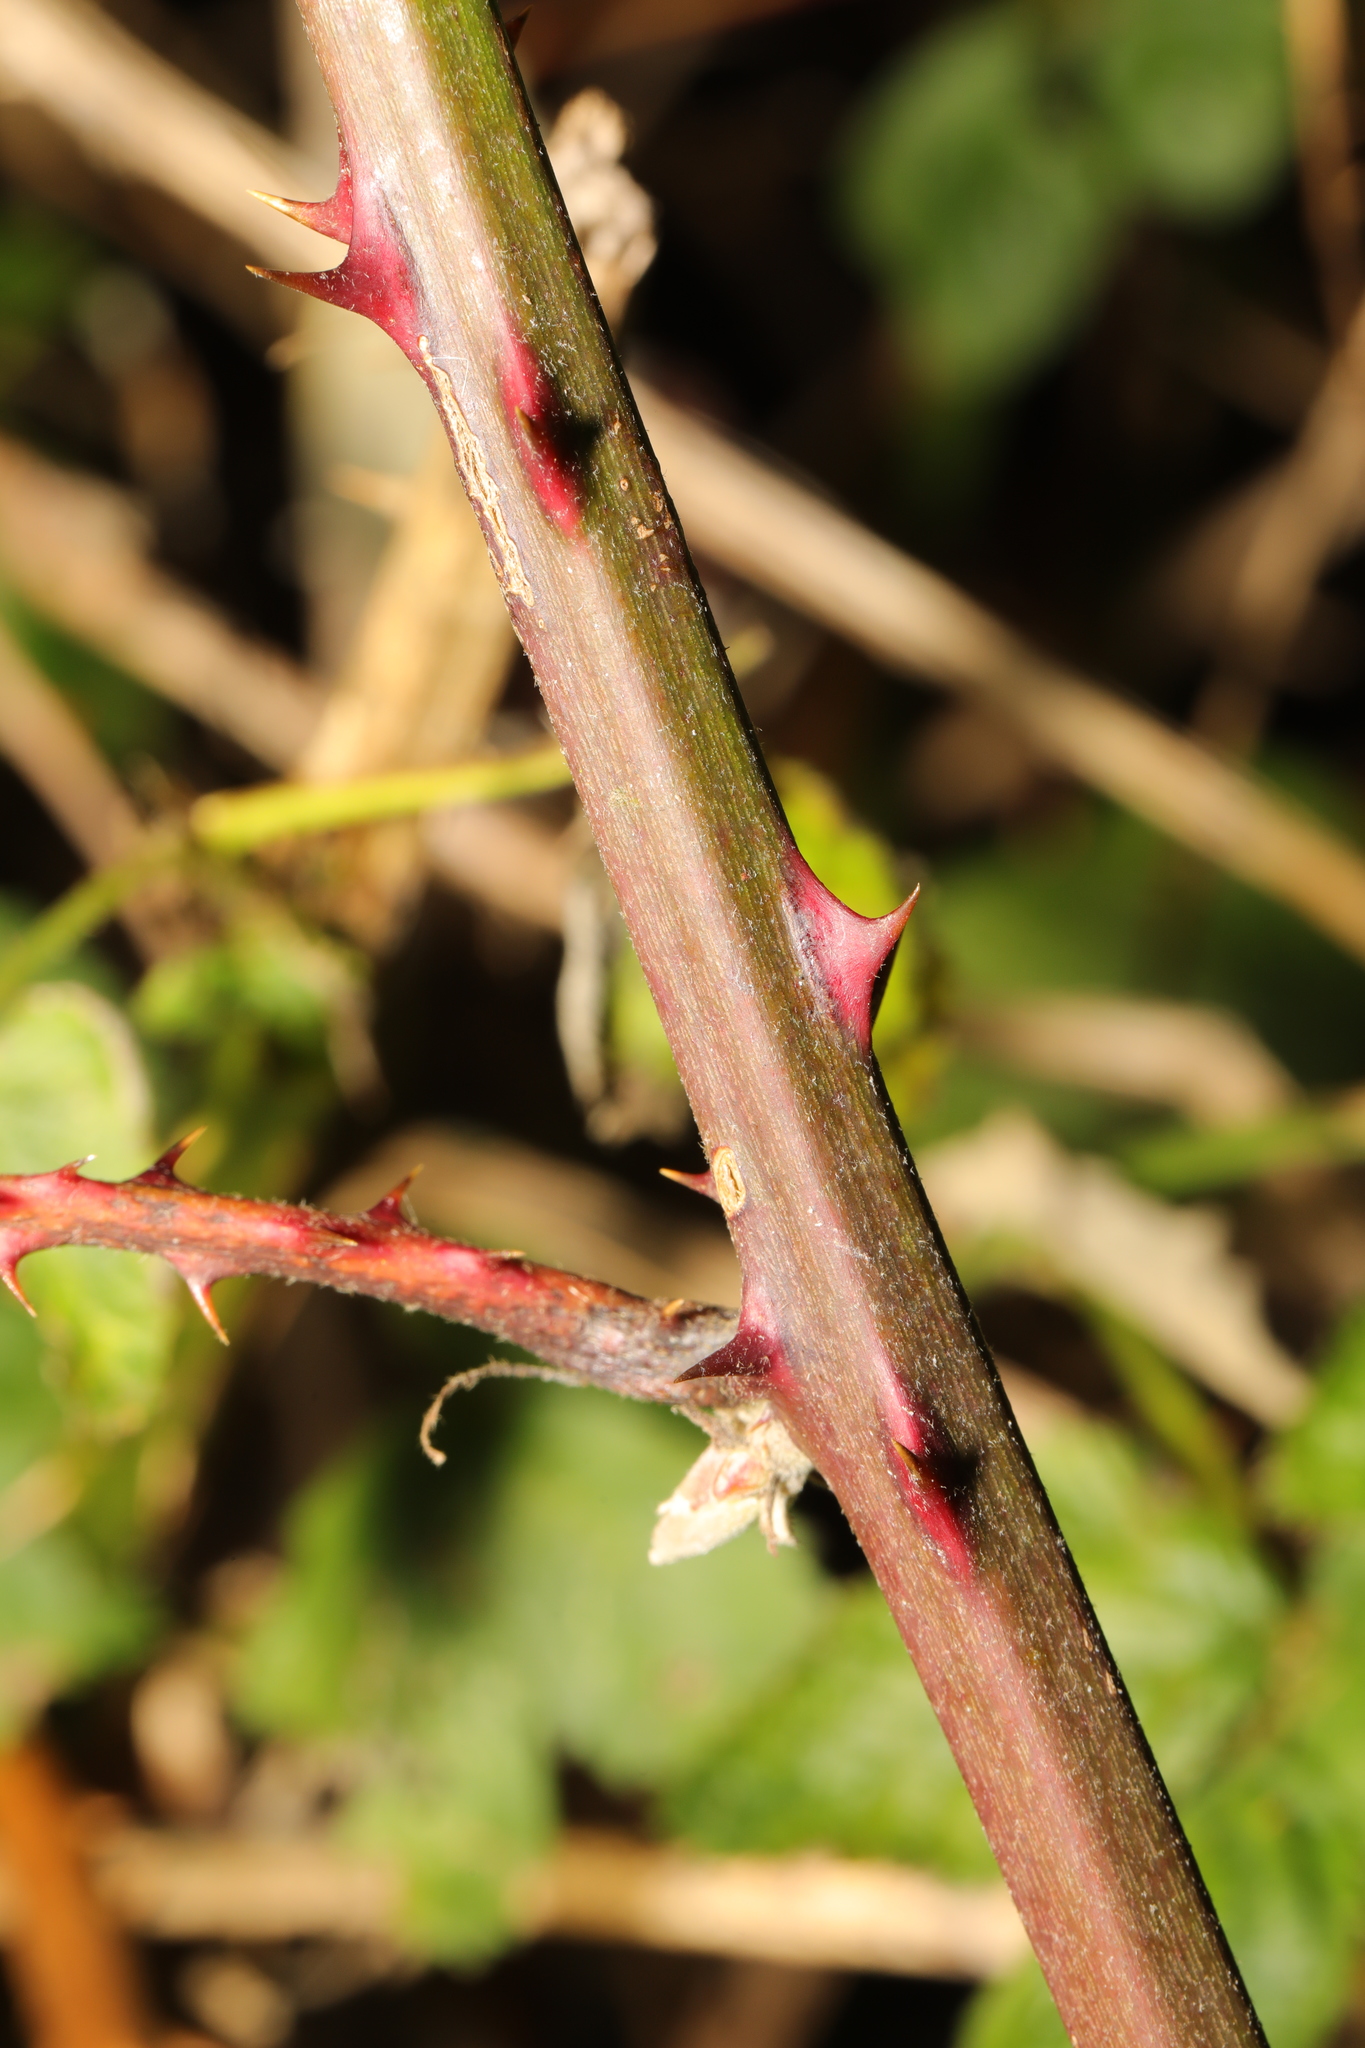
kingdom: Plantae
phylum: Tracheophyta
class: Magnoliopsida
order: Rosales
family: Rosaceae
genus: Rubus
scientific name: Rubus armeniacus
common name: Himalayan blackberry
